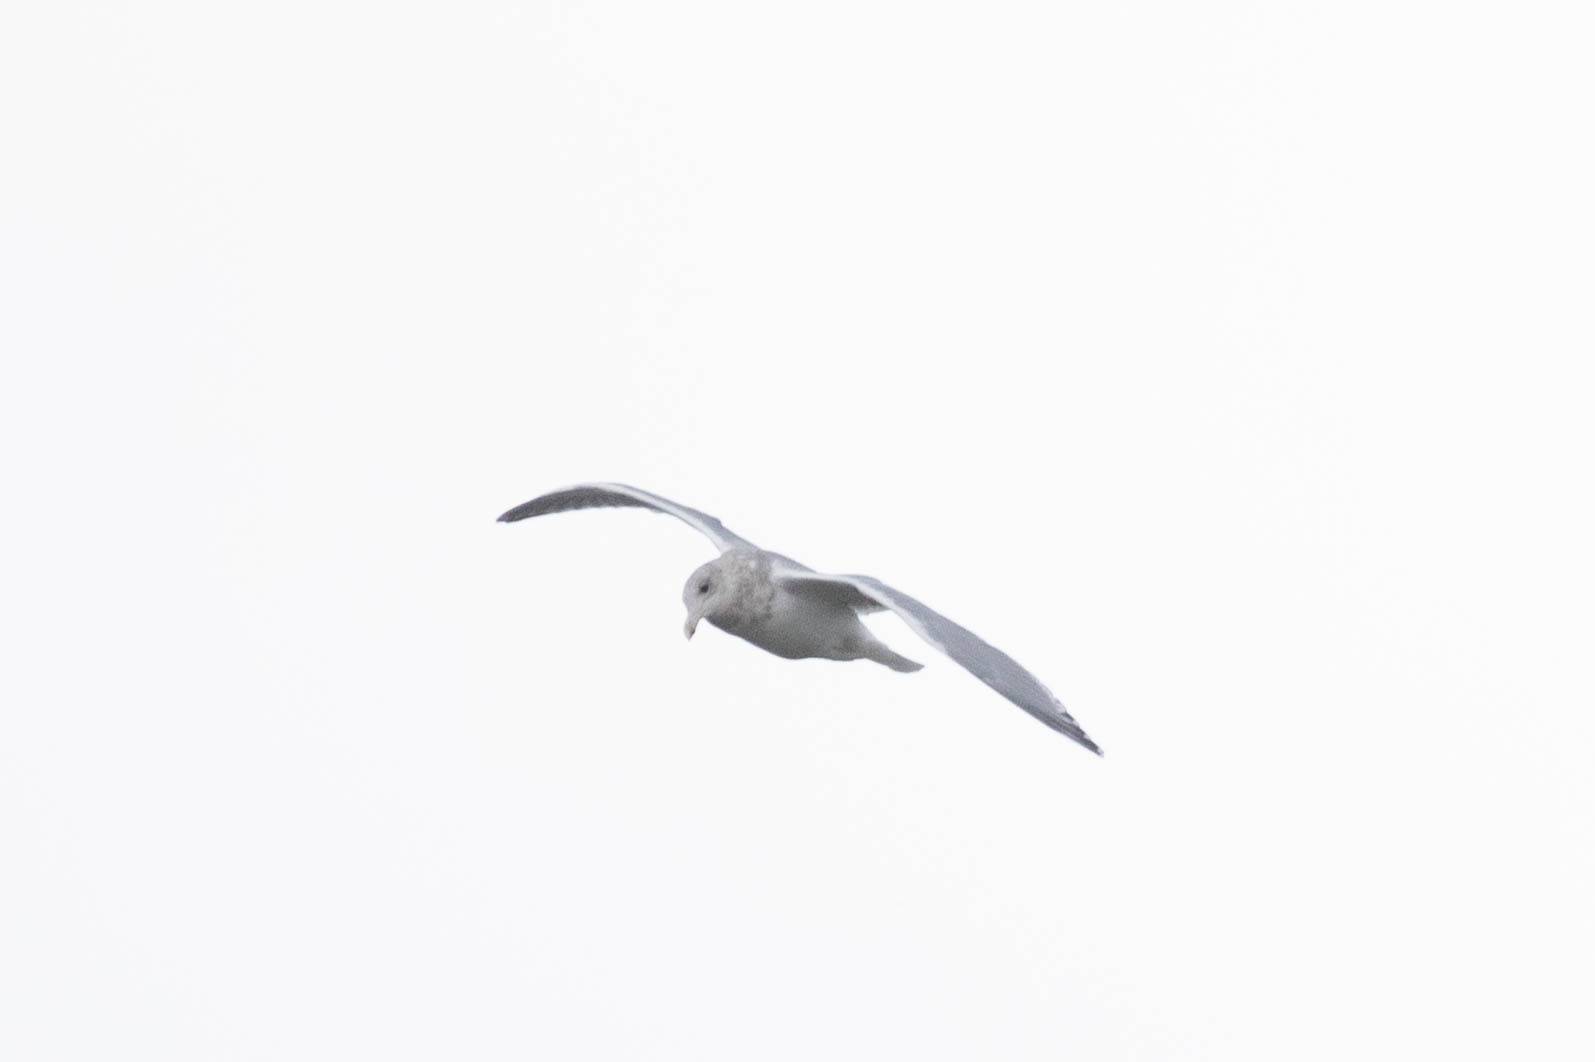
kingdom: Animalia
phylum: Chordata
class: Aves
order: Charadriiformes
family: Laridae
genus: Larus
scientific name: Larus glaucescens
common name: Glaucous-winged gull
